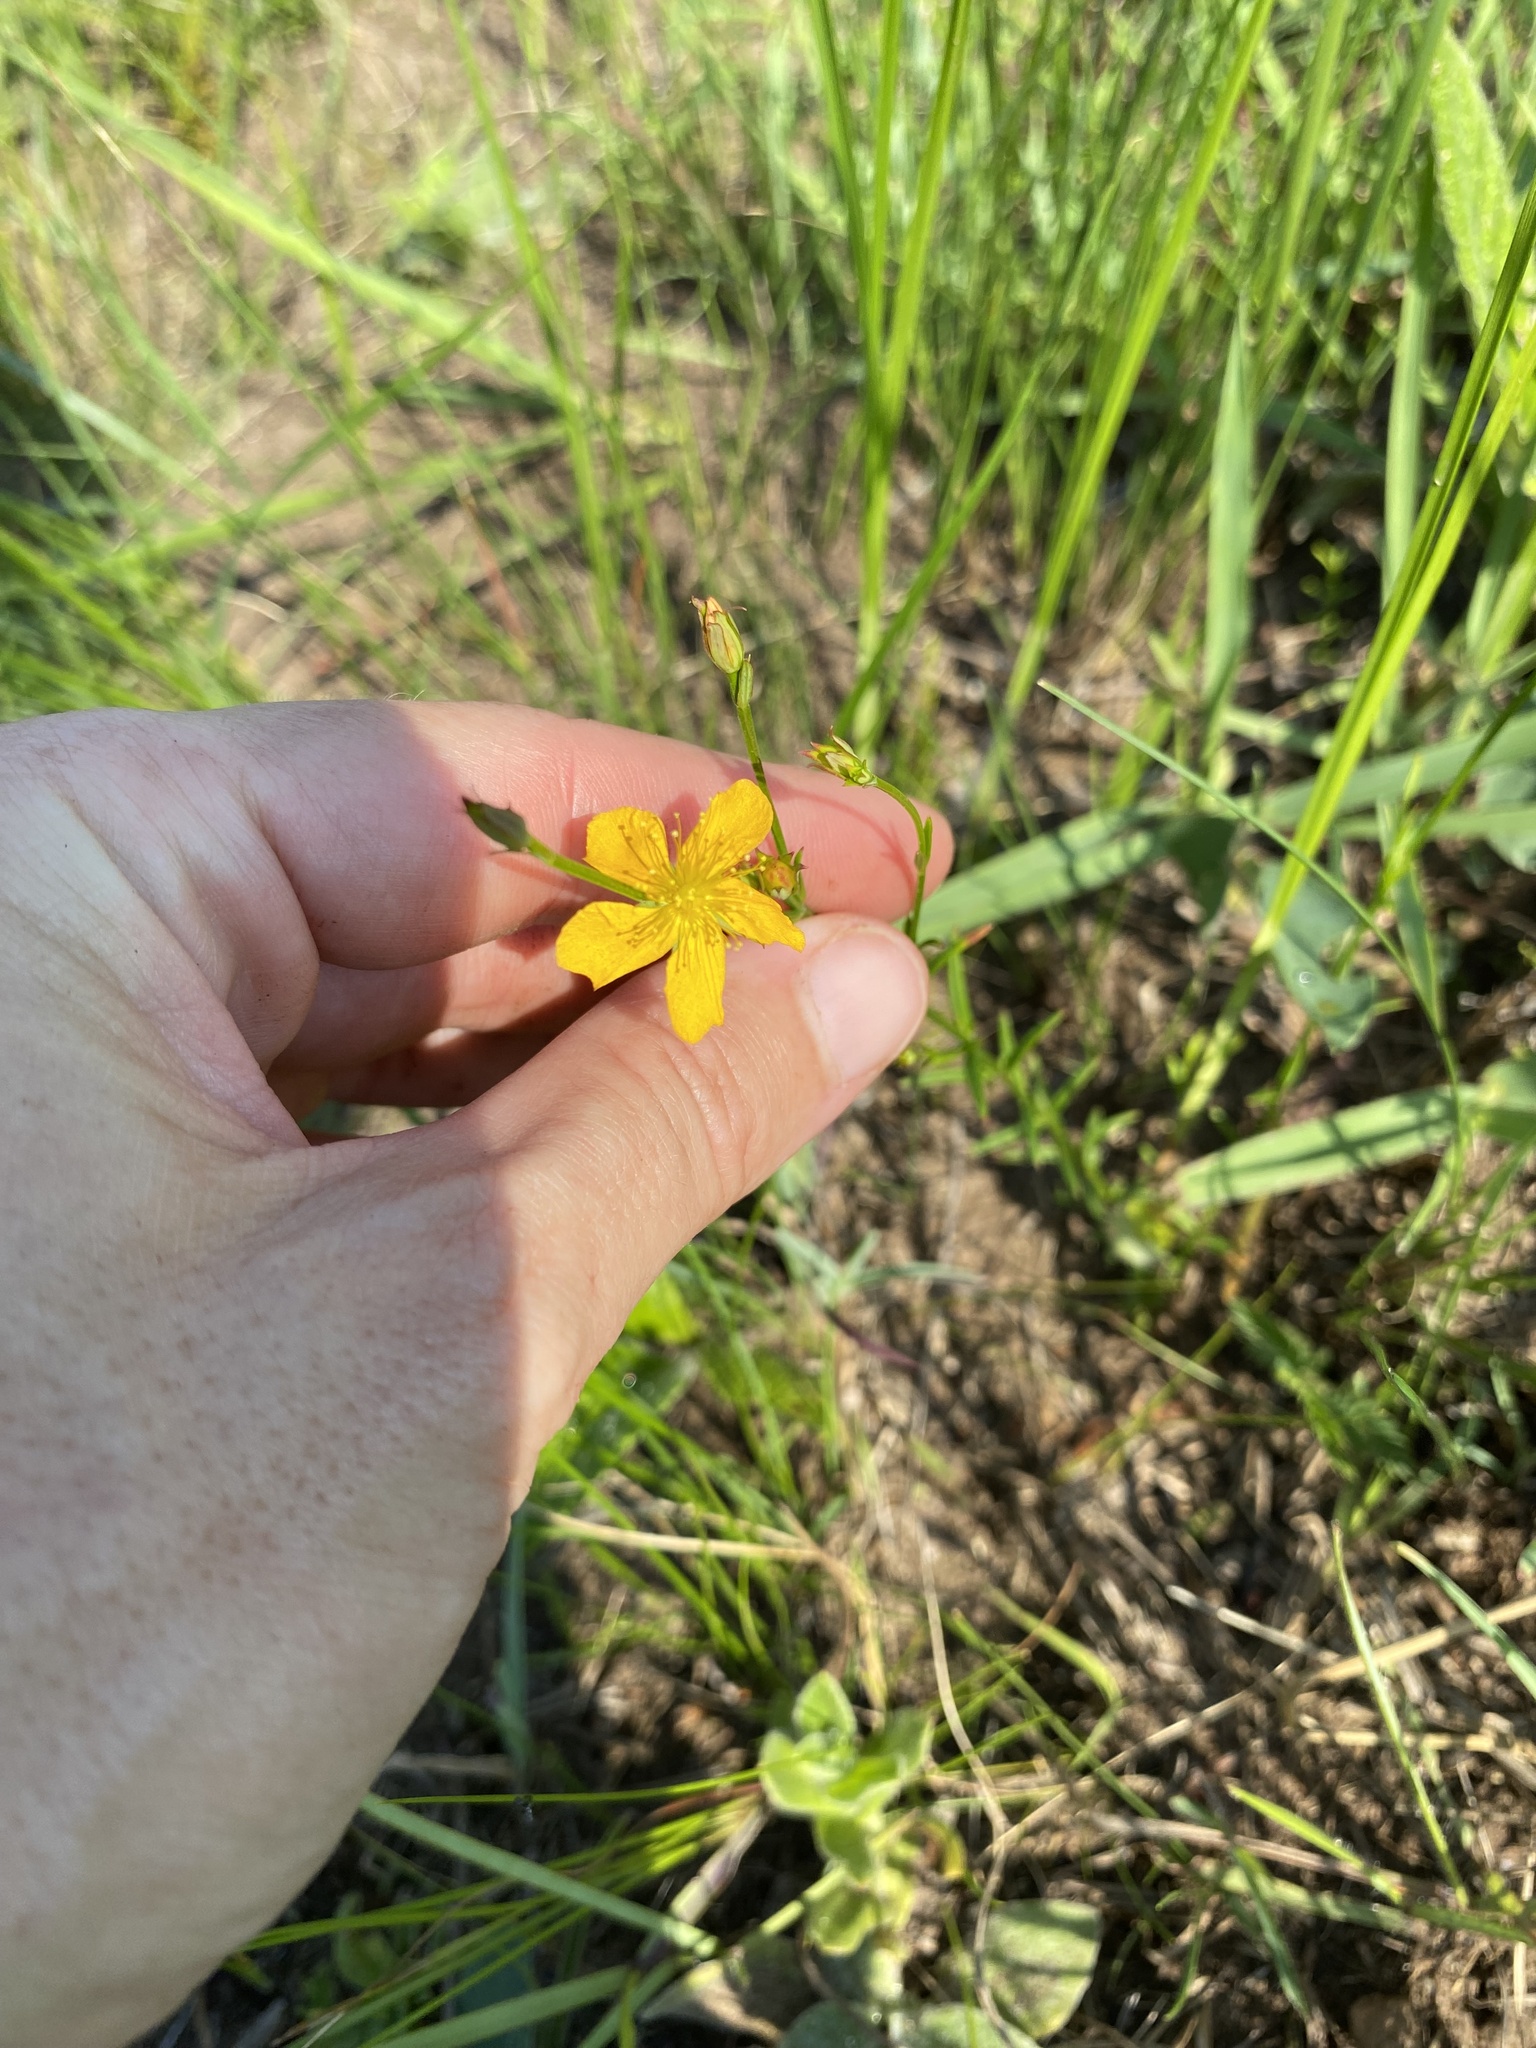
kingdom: Plantae
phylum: Tracheophyta
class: Magnoliopsida
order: Malpighiales
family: Hypericaceae
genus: Hypericum
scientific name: Hypericum lalandii
